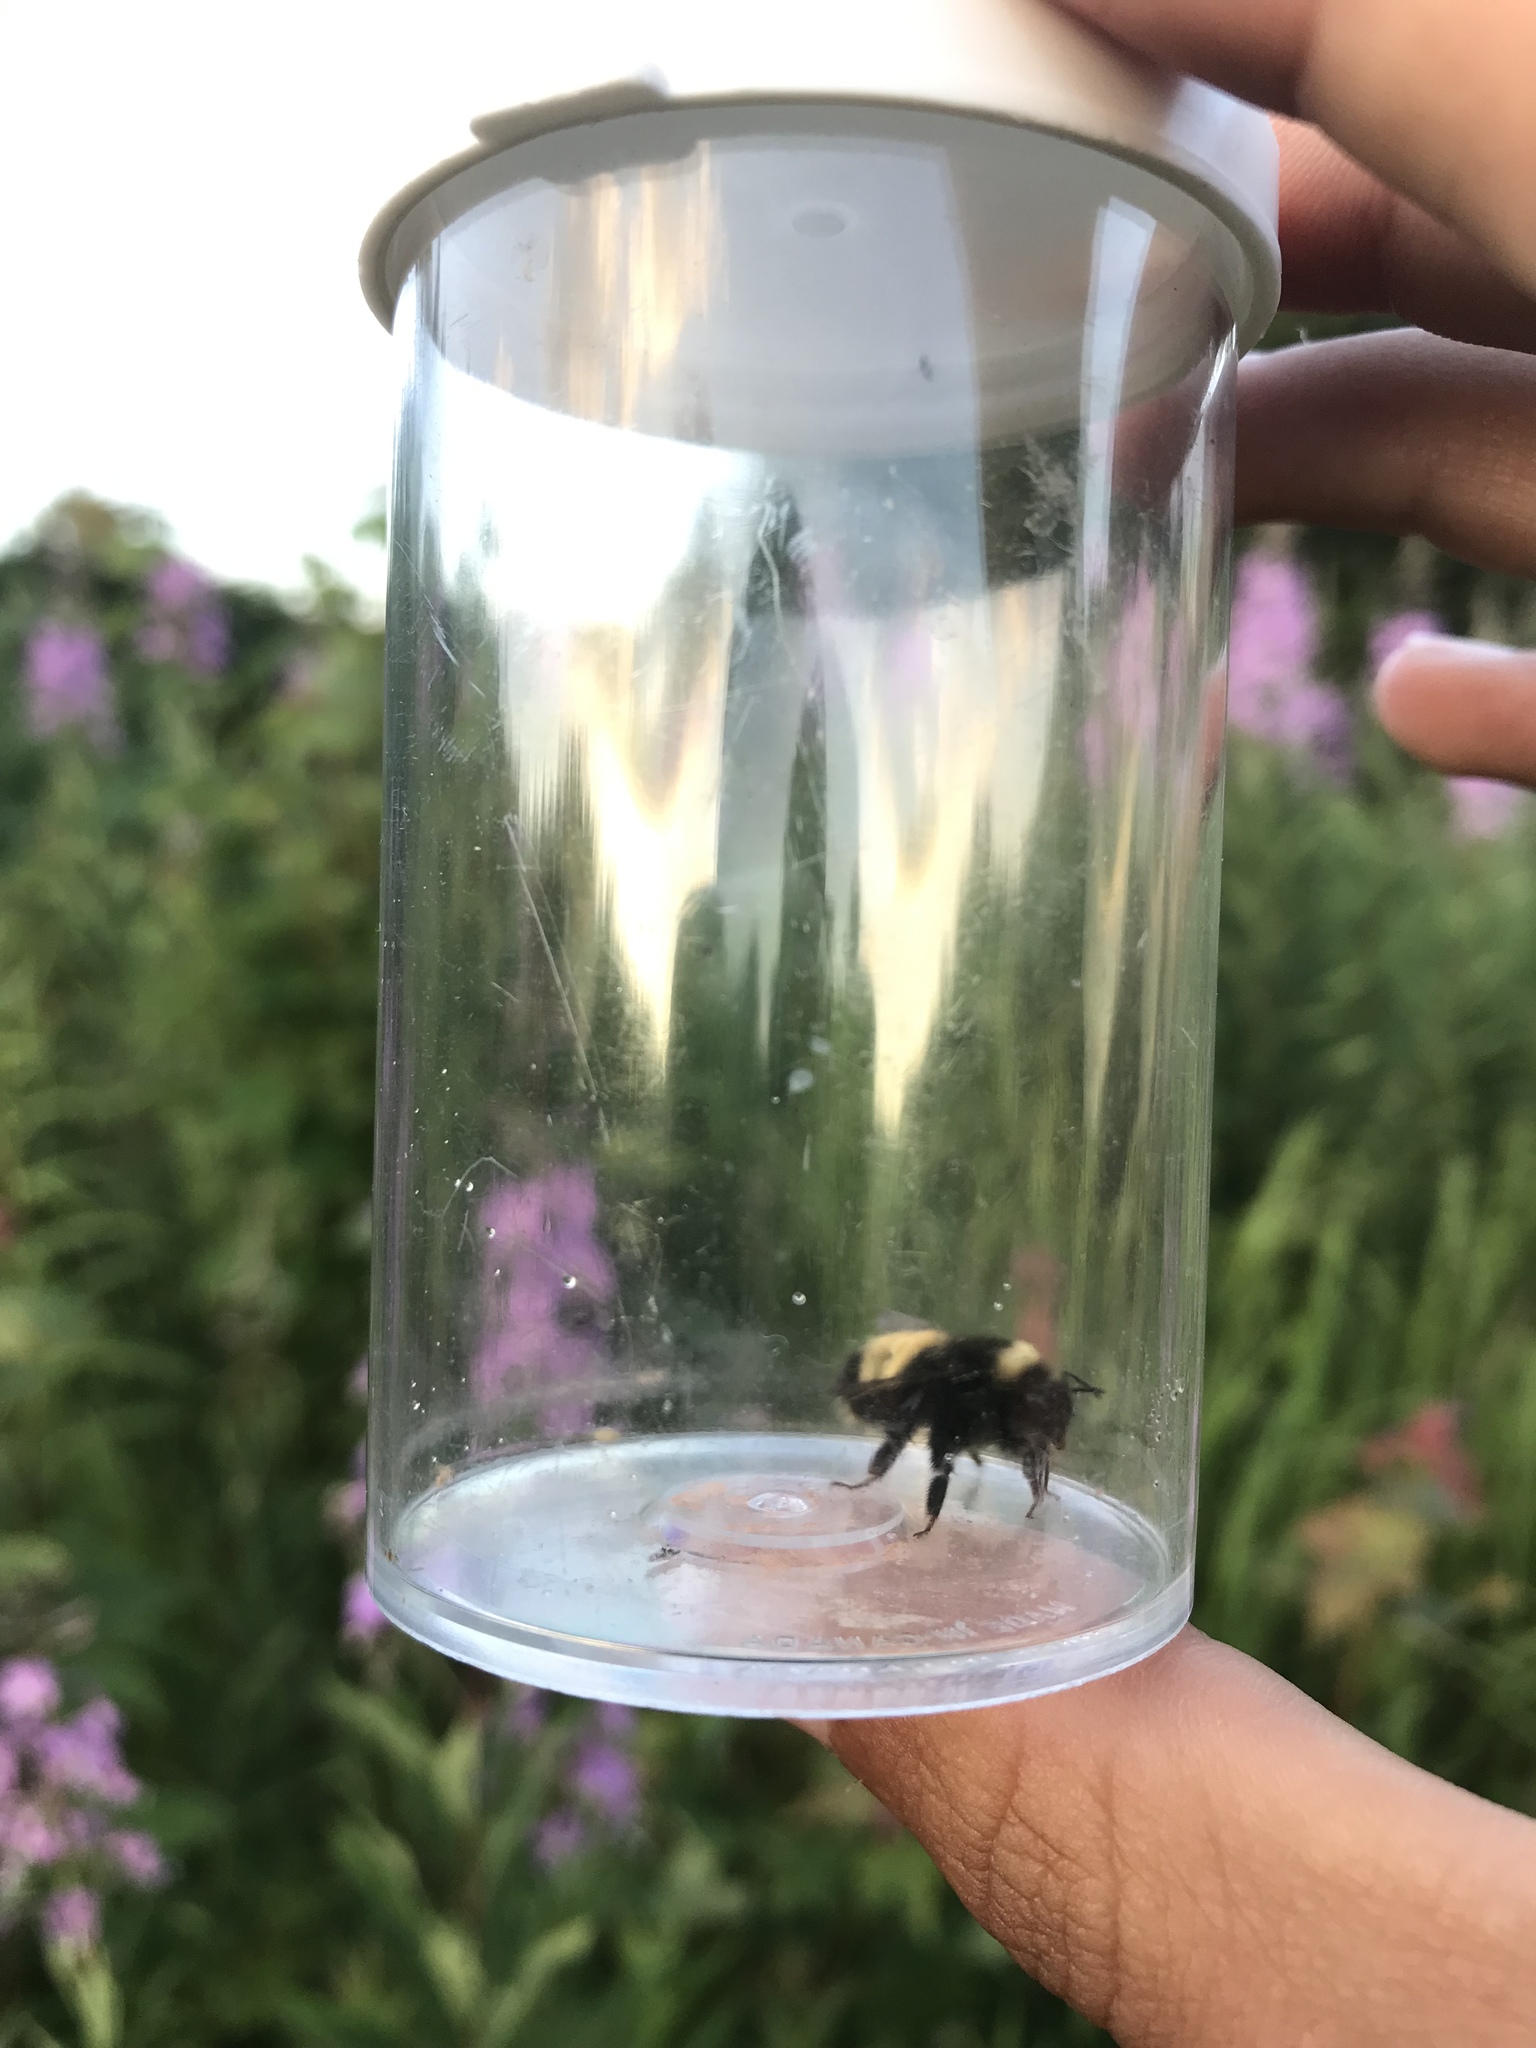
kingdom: Animalia
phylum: Arthropoda
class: Insecta
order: Hymenoptera
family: Apidae
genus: Bombus
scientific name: Bombus terricola
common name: Yellow-banded bumble bee
